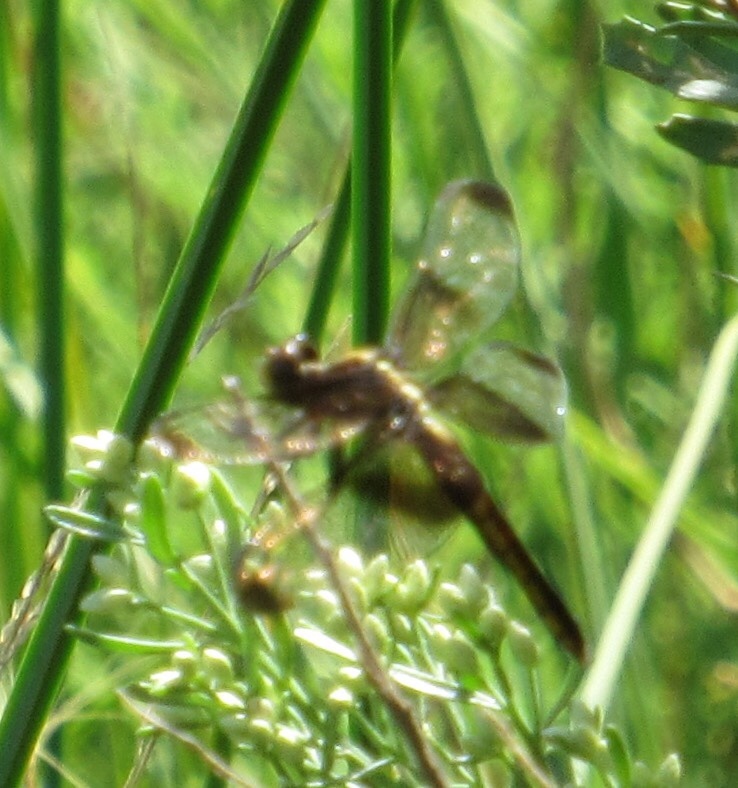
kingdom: Animalia
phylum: Arthropoda
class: Insecta
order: Odonata
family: Libellulidae
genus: Libellula
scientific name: Libellula luctuosa
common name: Widow skimmer
